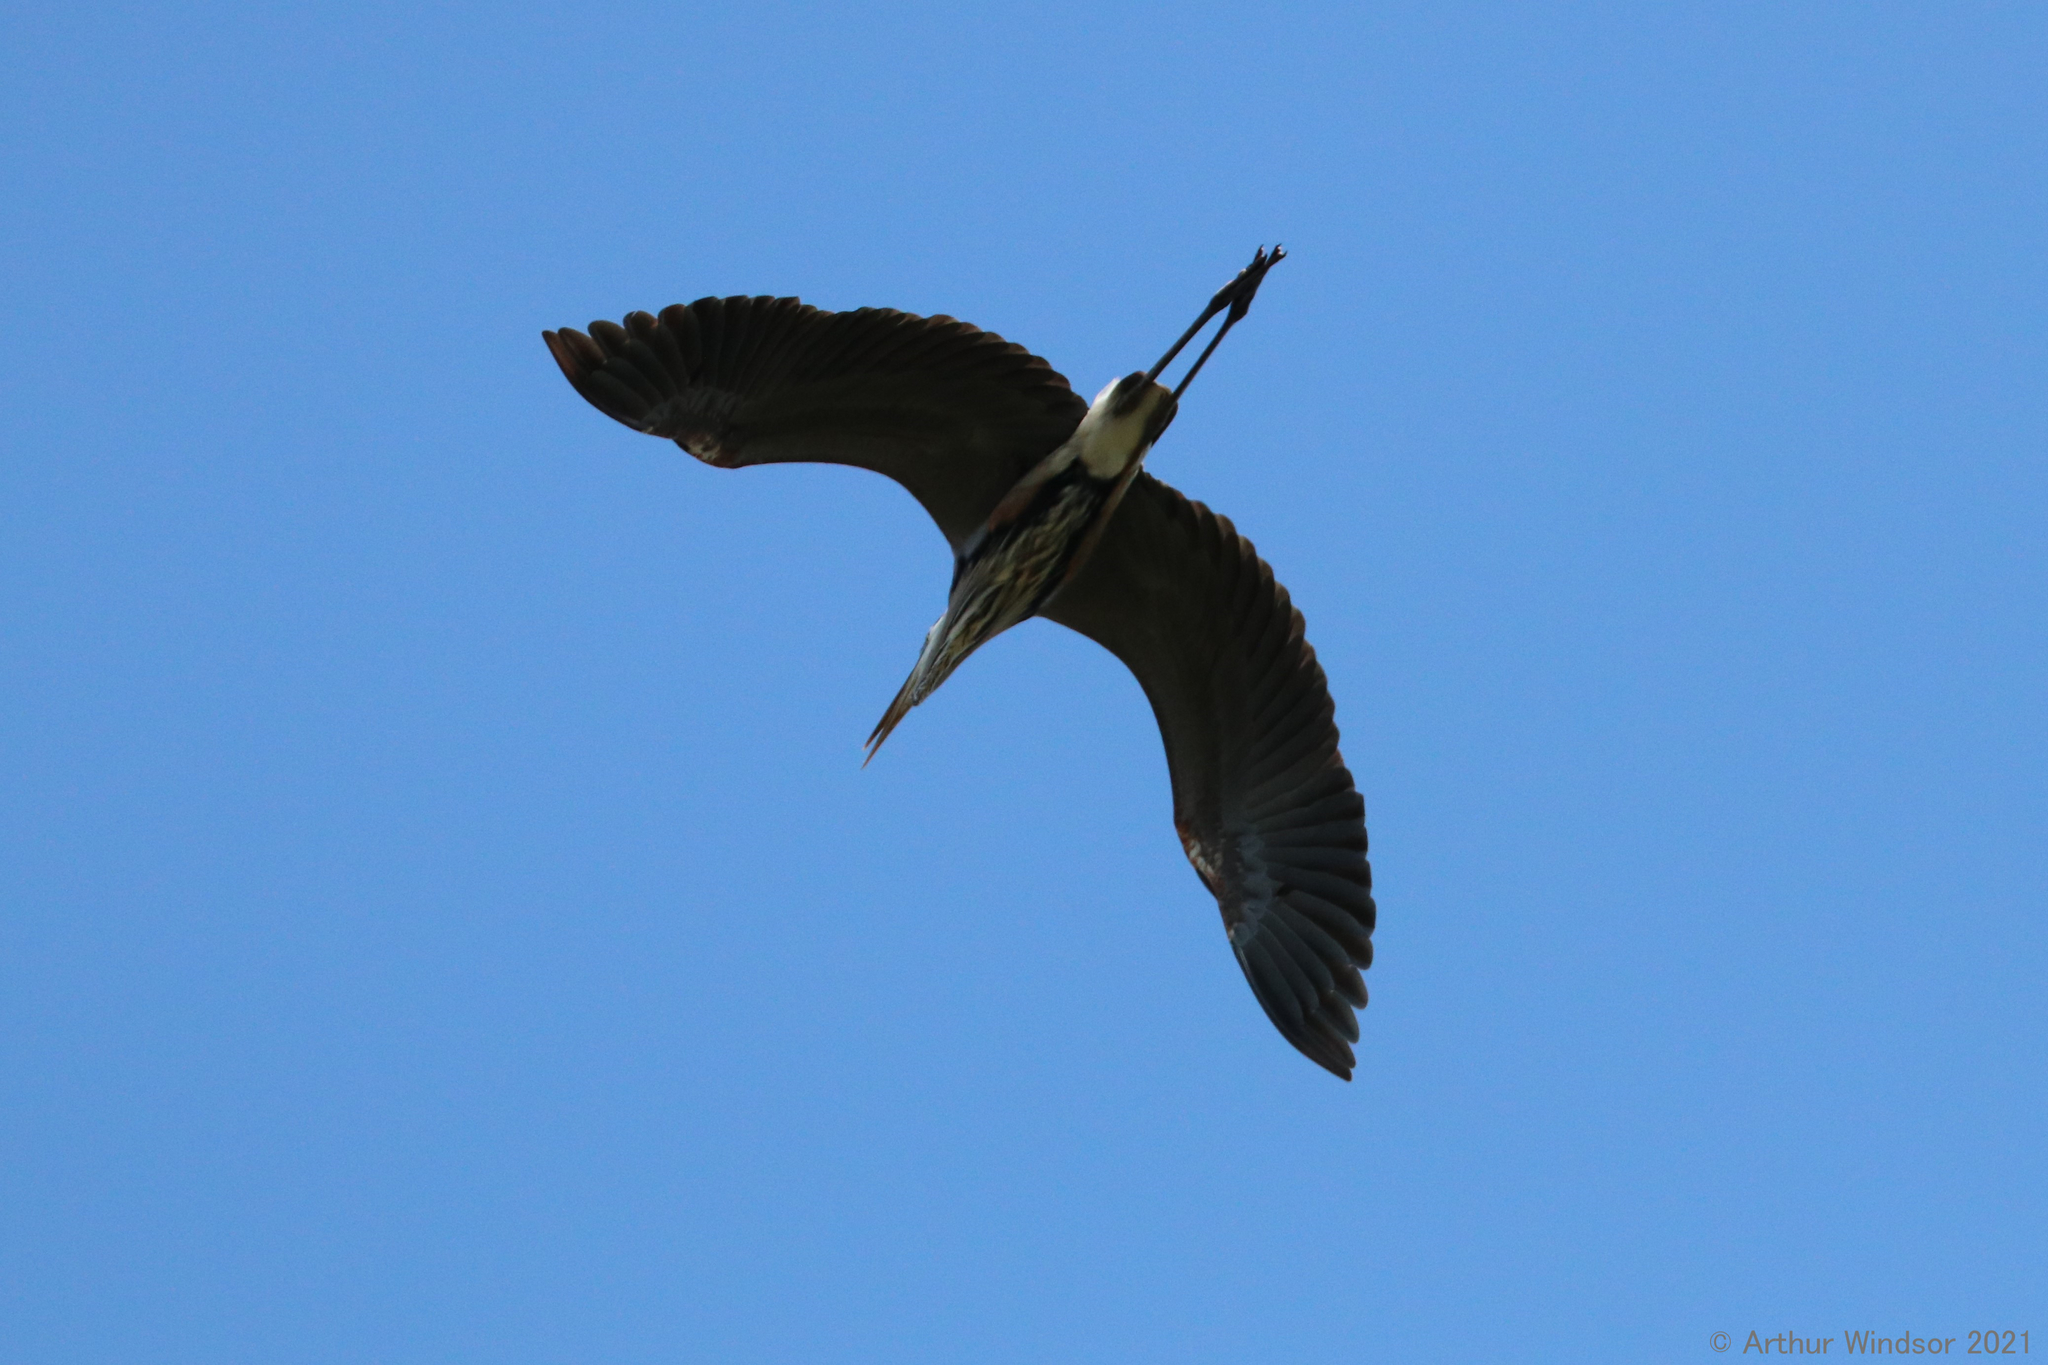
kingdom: Animalia
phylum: Chordata
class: Aves
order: Pelecaniformes
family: Ardeidae
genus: Ardea
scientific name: Ardea herodias
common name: Great blue heron
